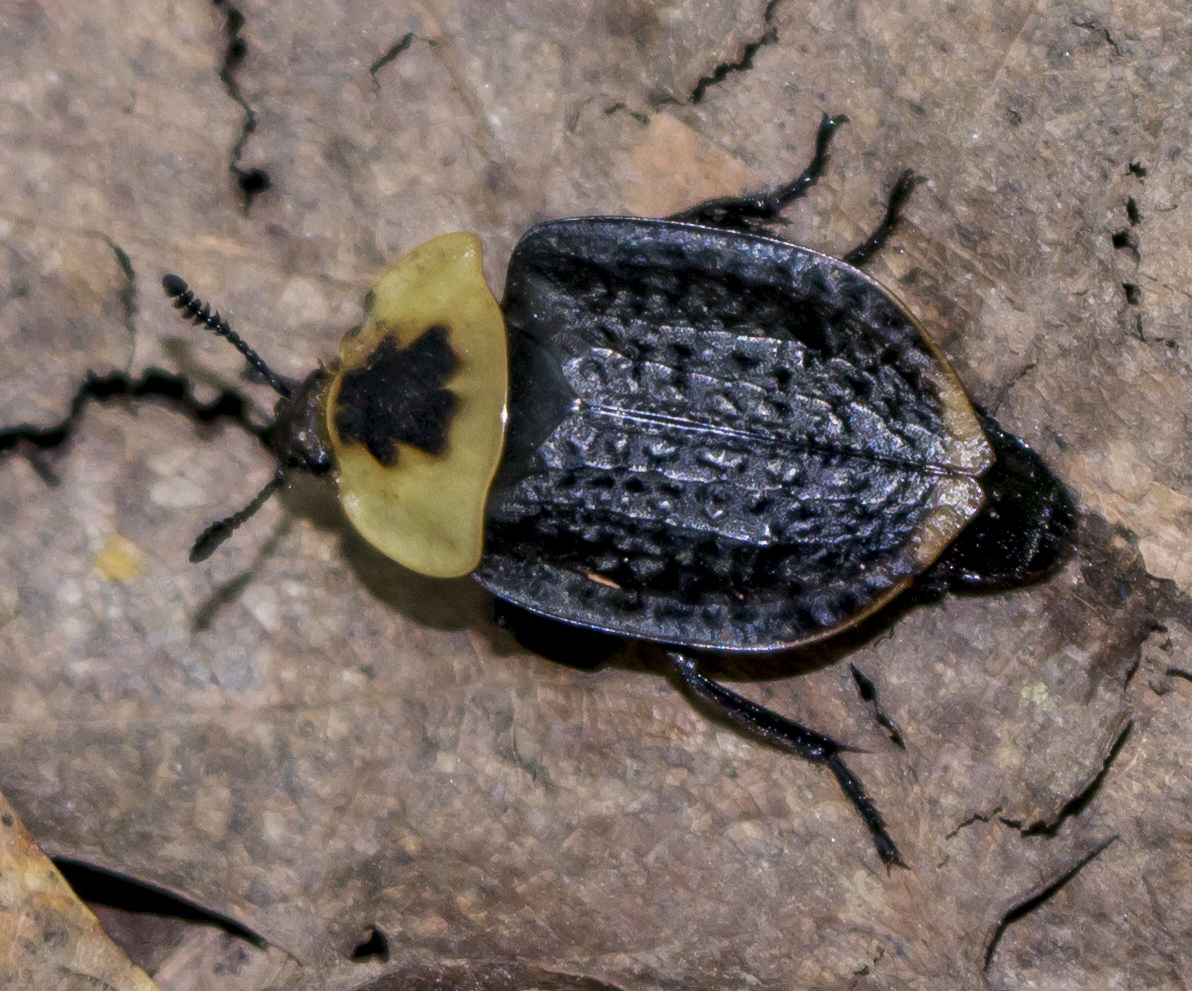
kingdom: Animalia
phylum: Arthropoda
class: Insecta
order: Coleoptera
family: Staphylinidae
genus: Necrophila
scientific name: Necrophila americana
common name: American carrion beetle
